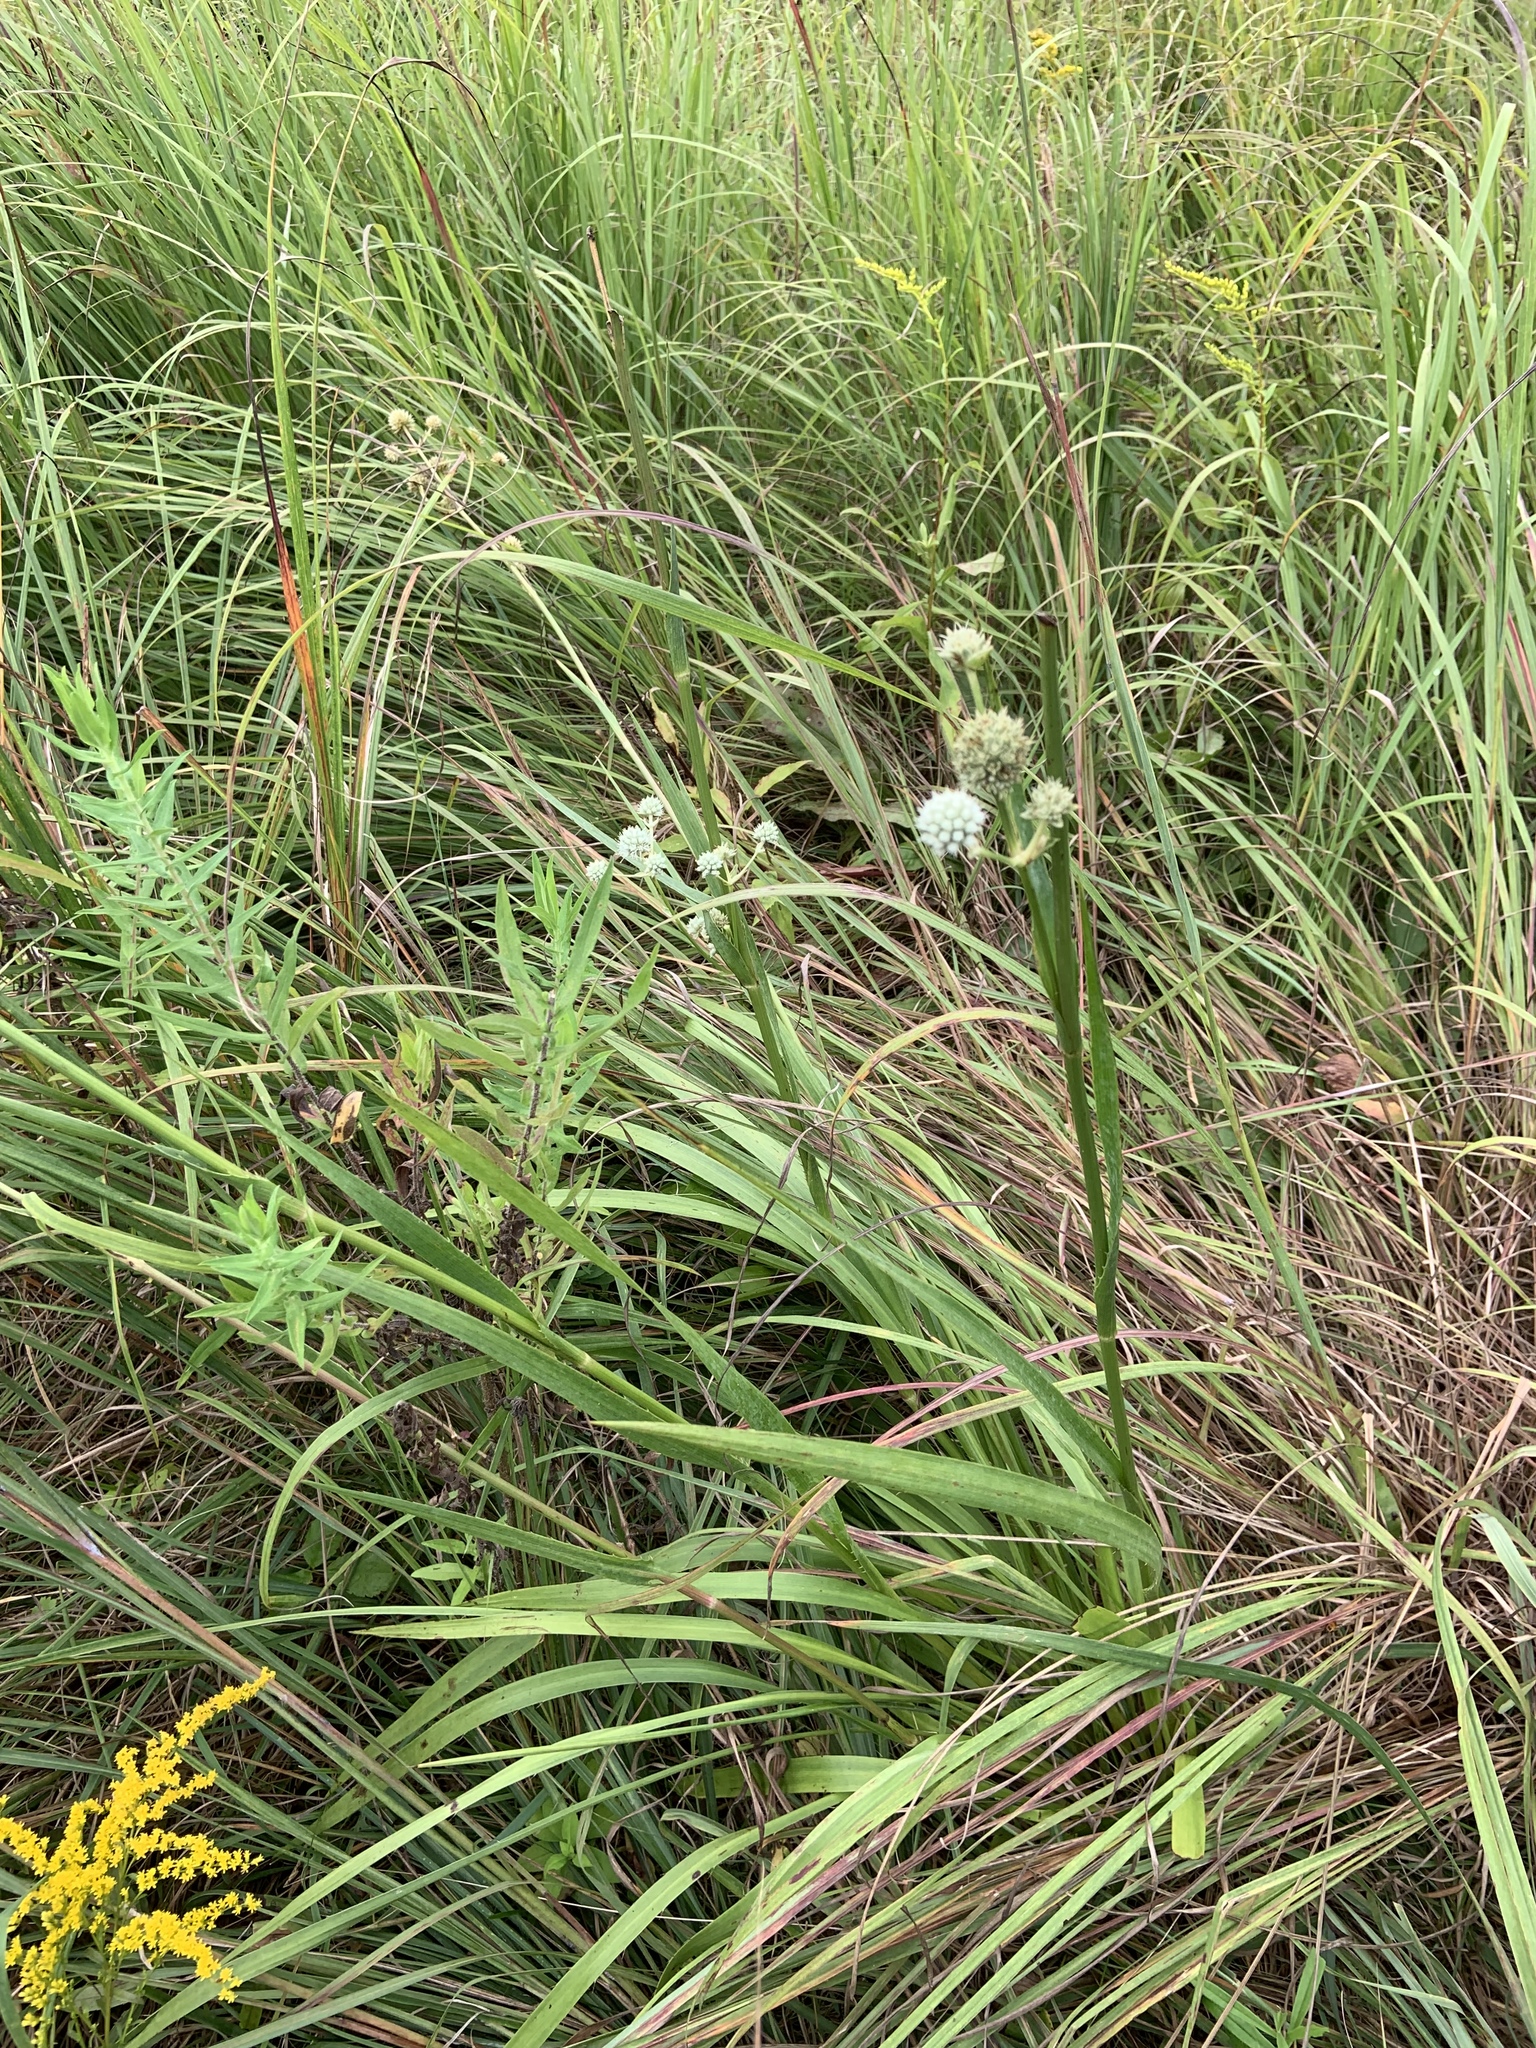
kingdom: Plantae
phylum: Tracheophyta
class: Magnoliopsida
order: Apiales
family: Apiaceae
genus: Eryngium
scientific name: Eryngium yuccifolium
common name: Button eryngo
